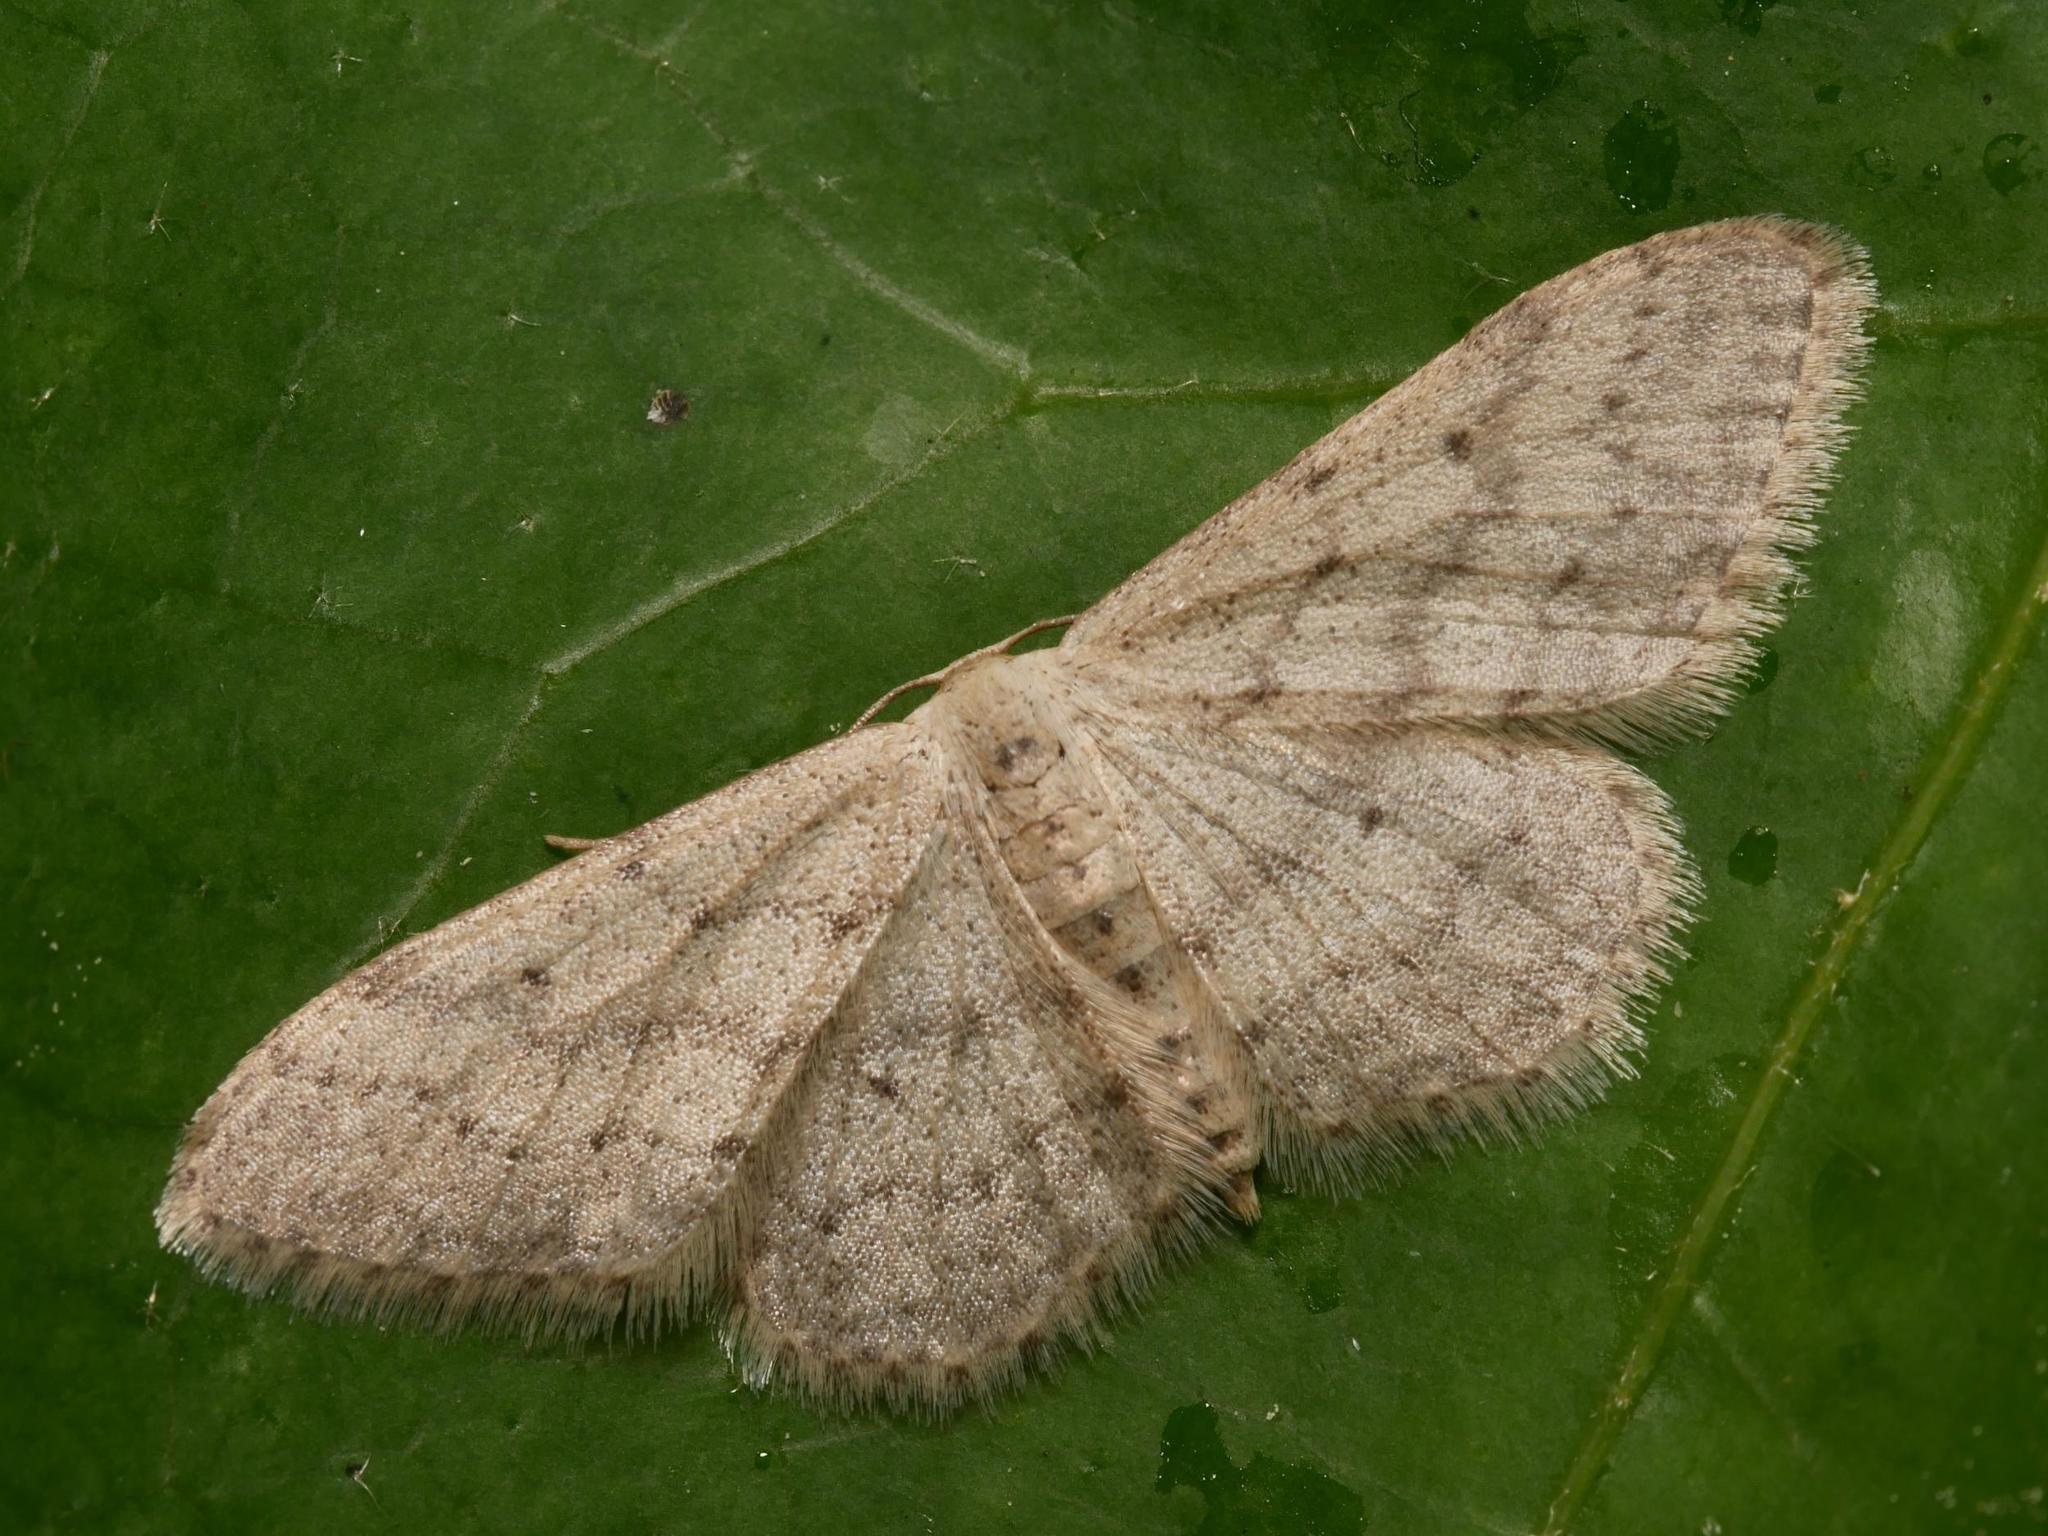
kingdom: Animalia
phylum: Arthropoda
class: Insecta
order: Lepidoptera
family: Geometridae
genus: Idaea
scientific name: Idaea seriata
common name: Small dusty wave
